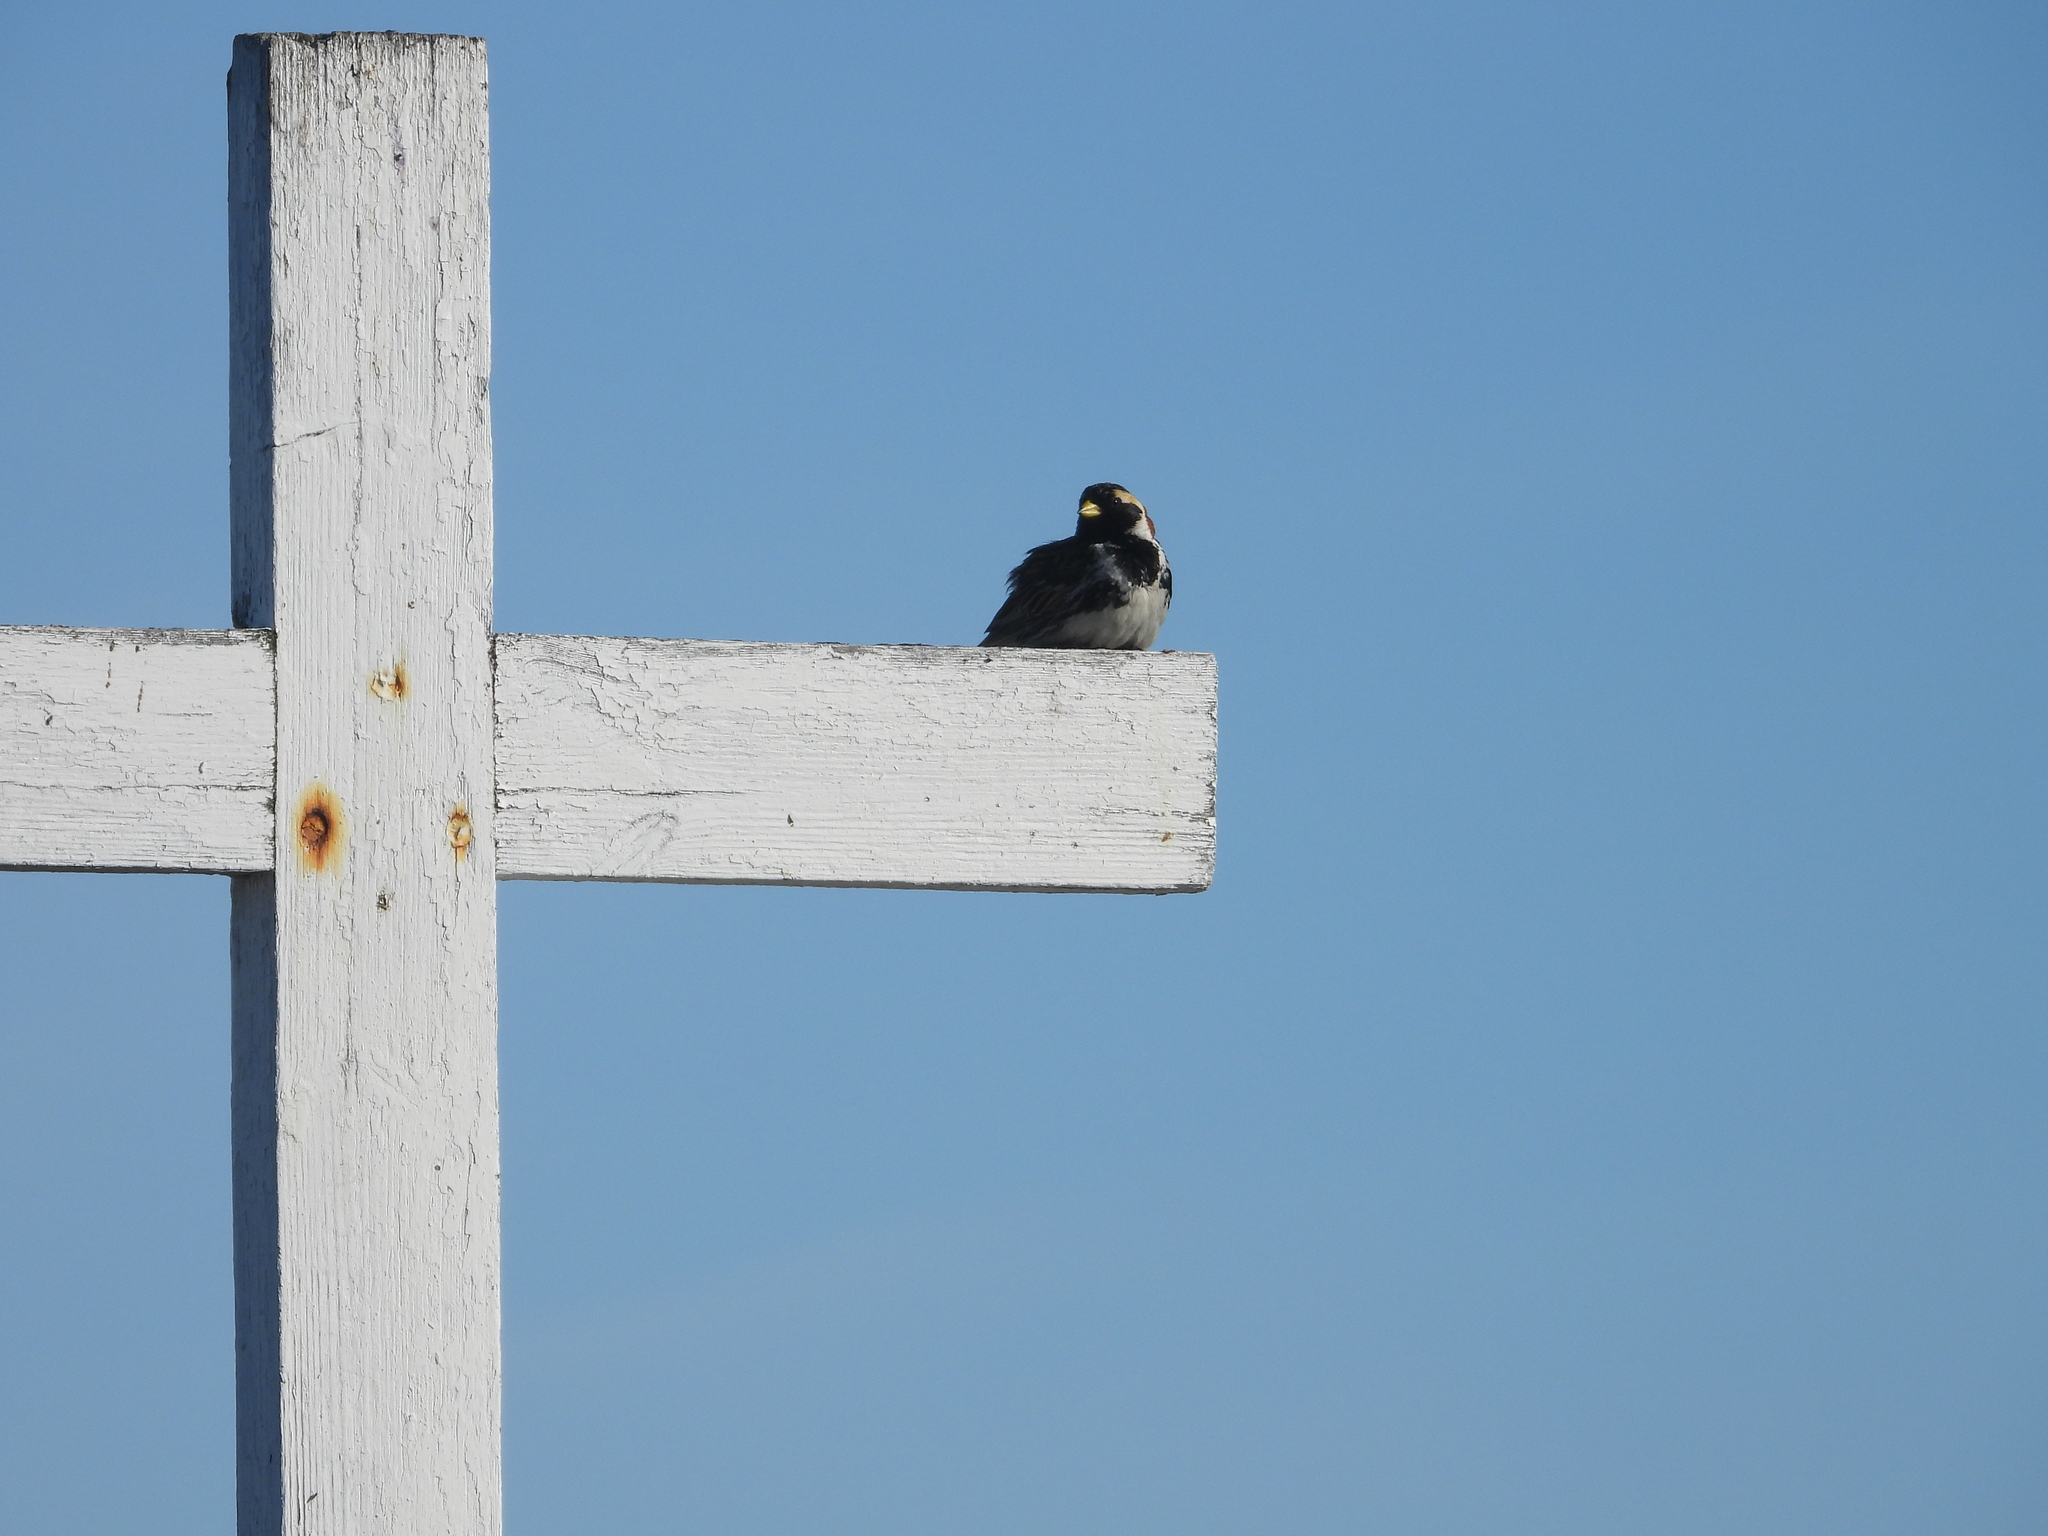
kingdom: Animalia
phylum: Chordata
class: Aves
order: Passeriformes
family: Calcariidae
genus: Calcarius
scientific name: Calcarius lapponicus
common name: Lapland longspur
